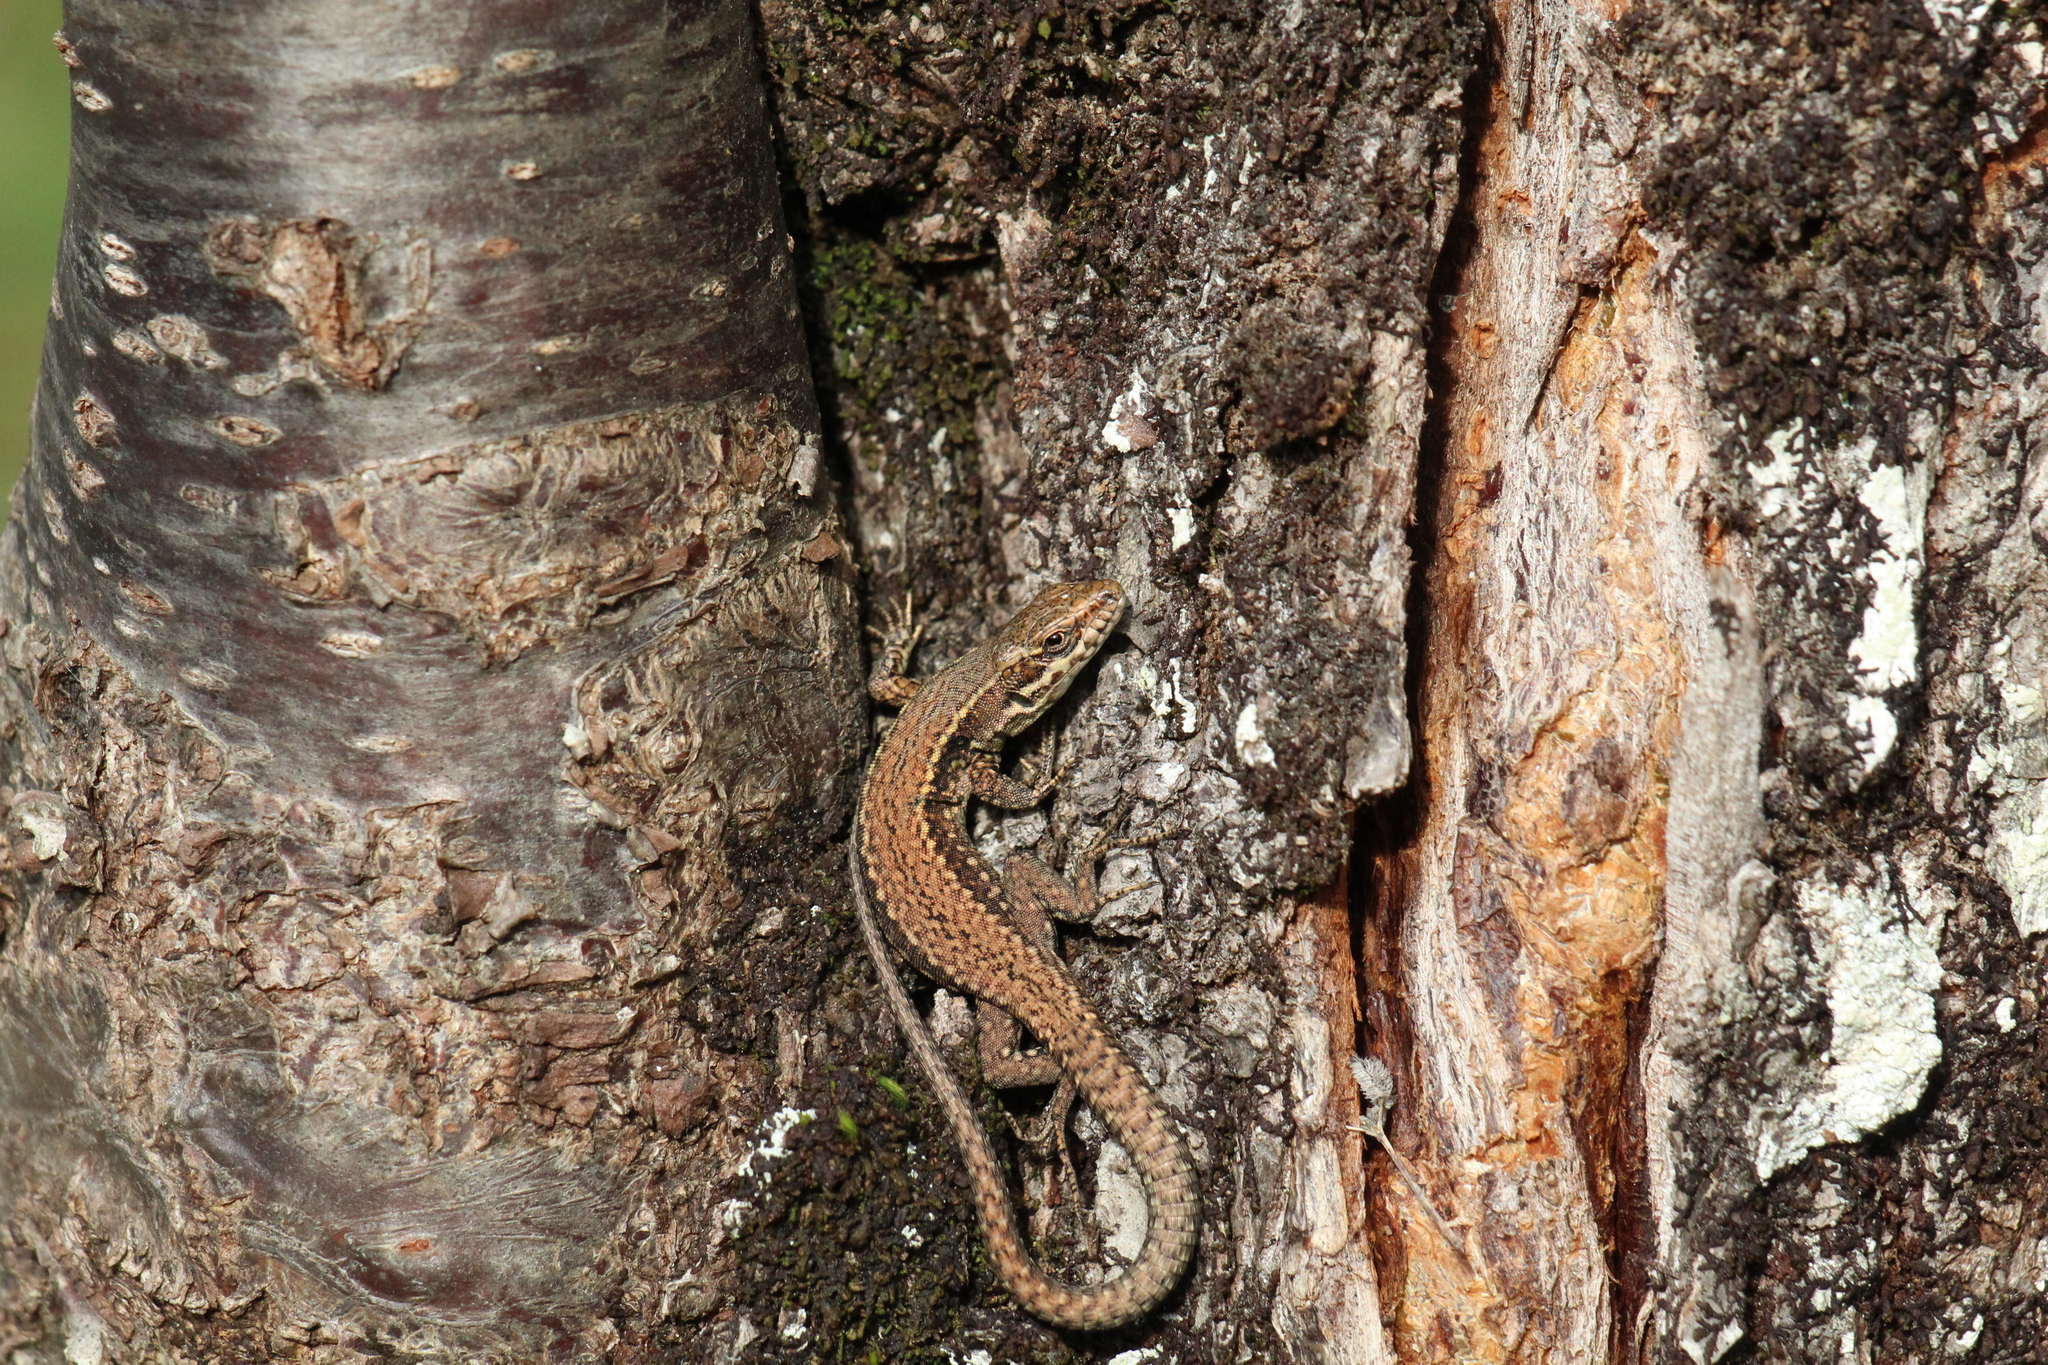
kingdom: Animalia
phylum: Chordata
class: Squamata
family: Lacertidae
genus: Podarcis
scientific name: Podarcis muralis
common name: Common wall lizard
